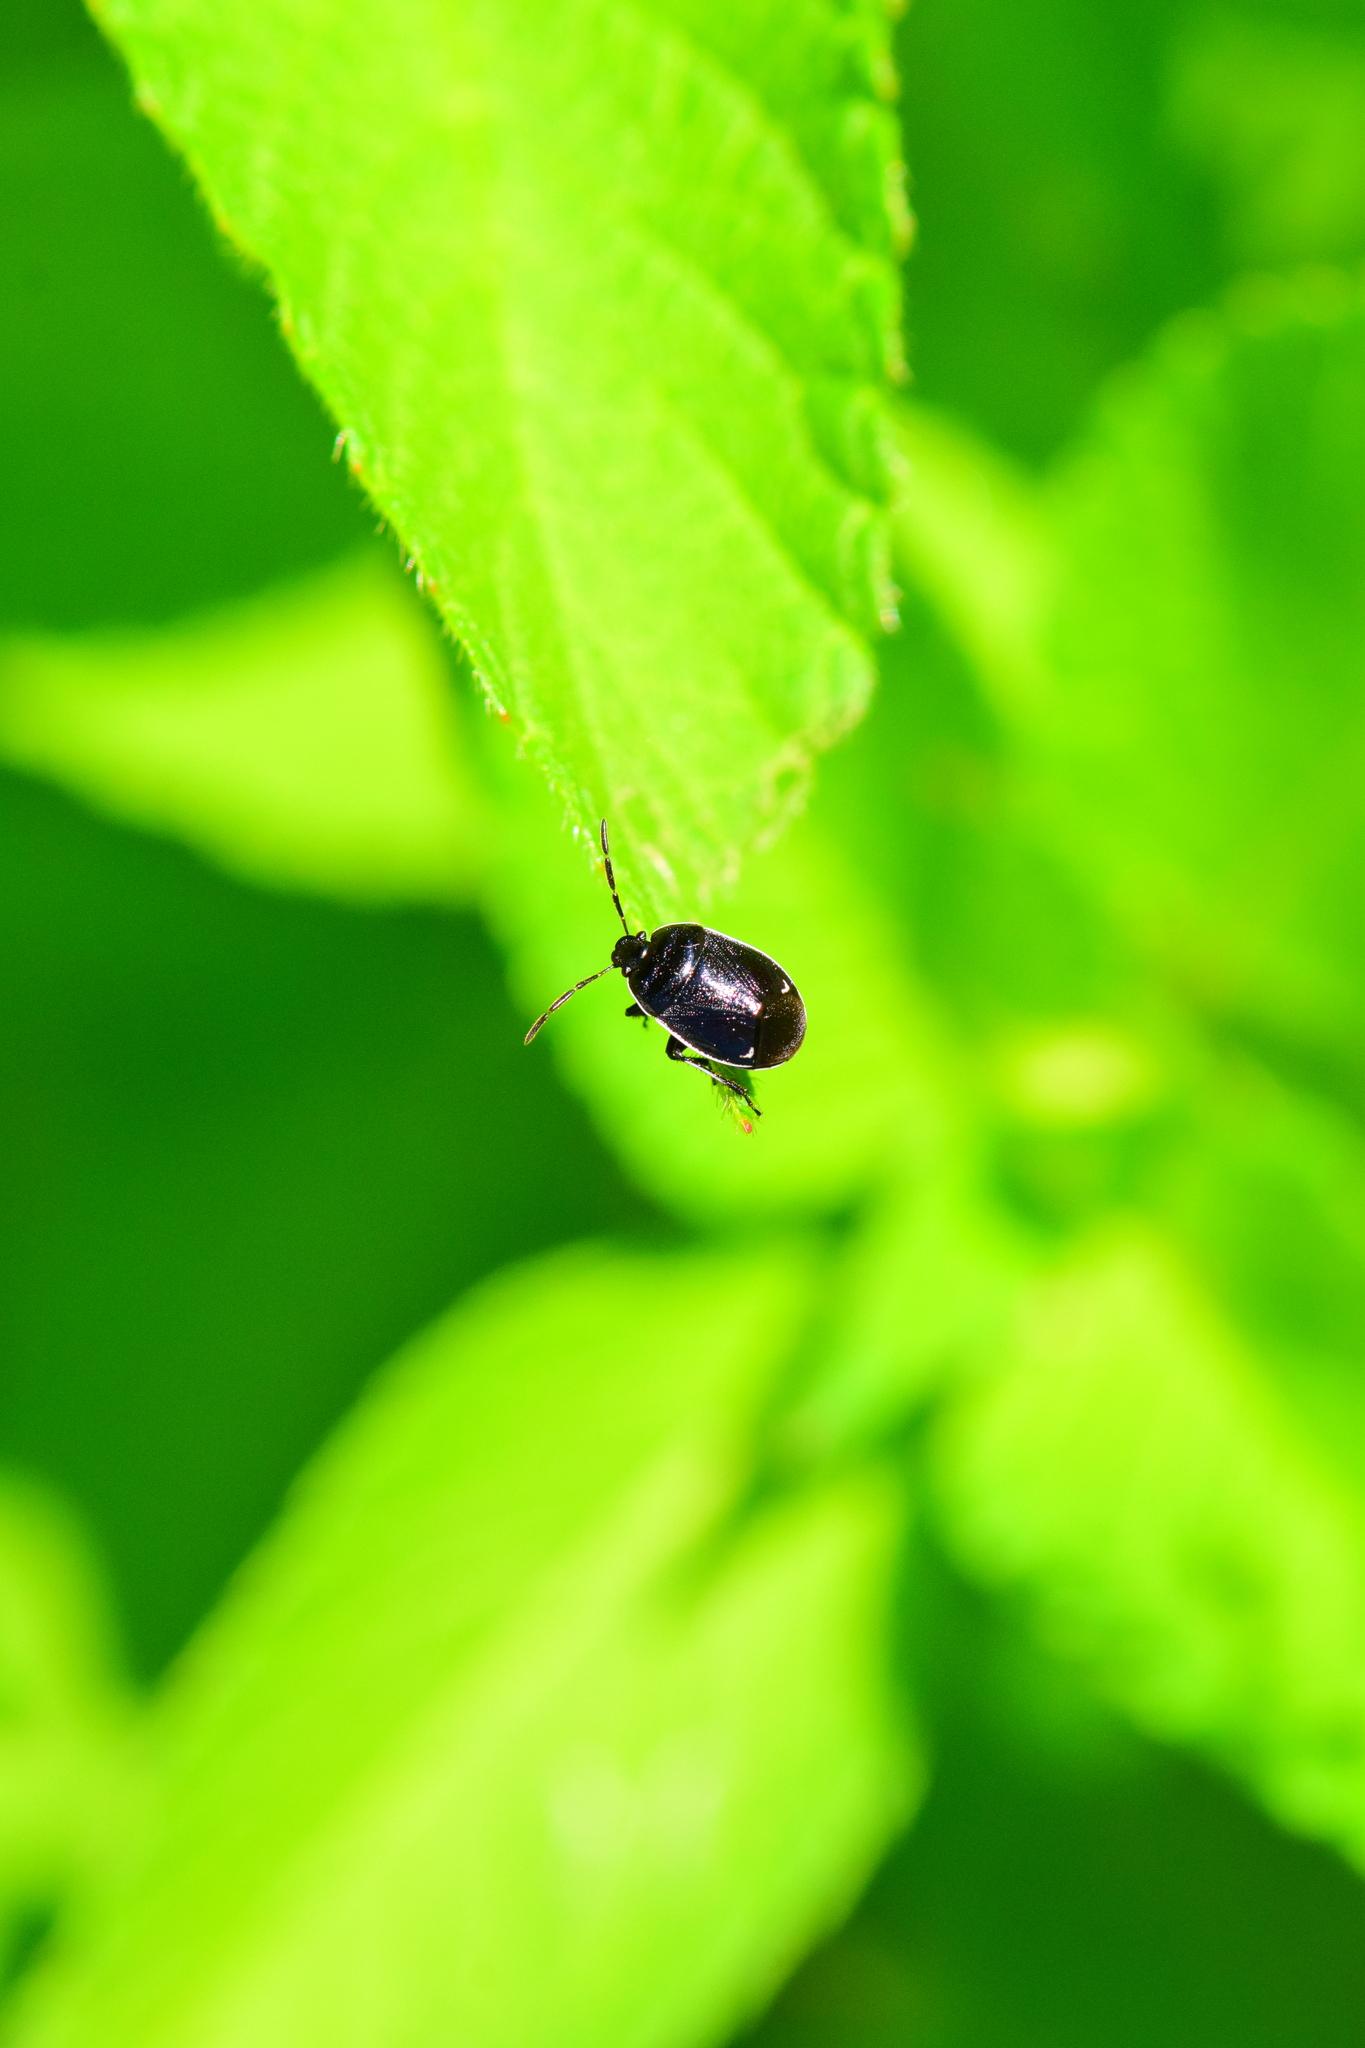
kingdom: Animalia
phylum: Arthropoda
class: Insecta
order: Hemiptera
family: Cydnidae
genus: Sehirus
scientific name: Sehirus cinctus
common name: White-margined burrower bug
